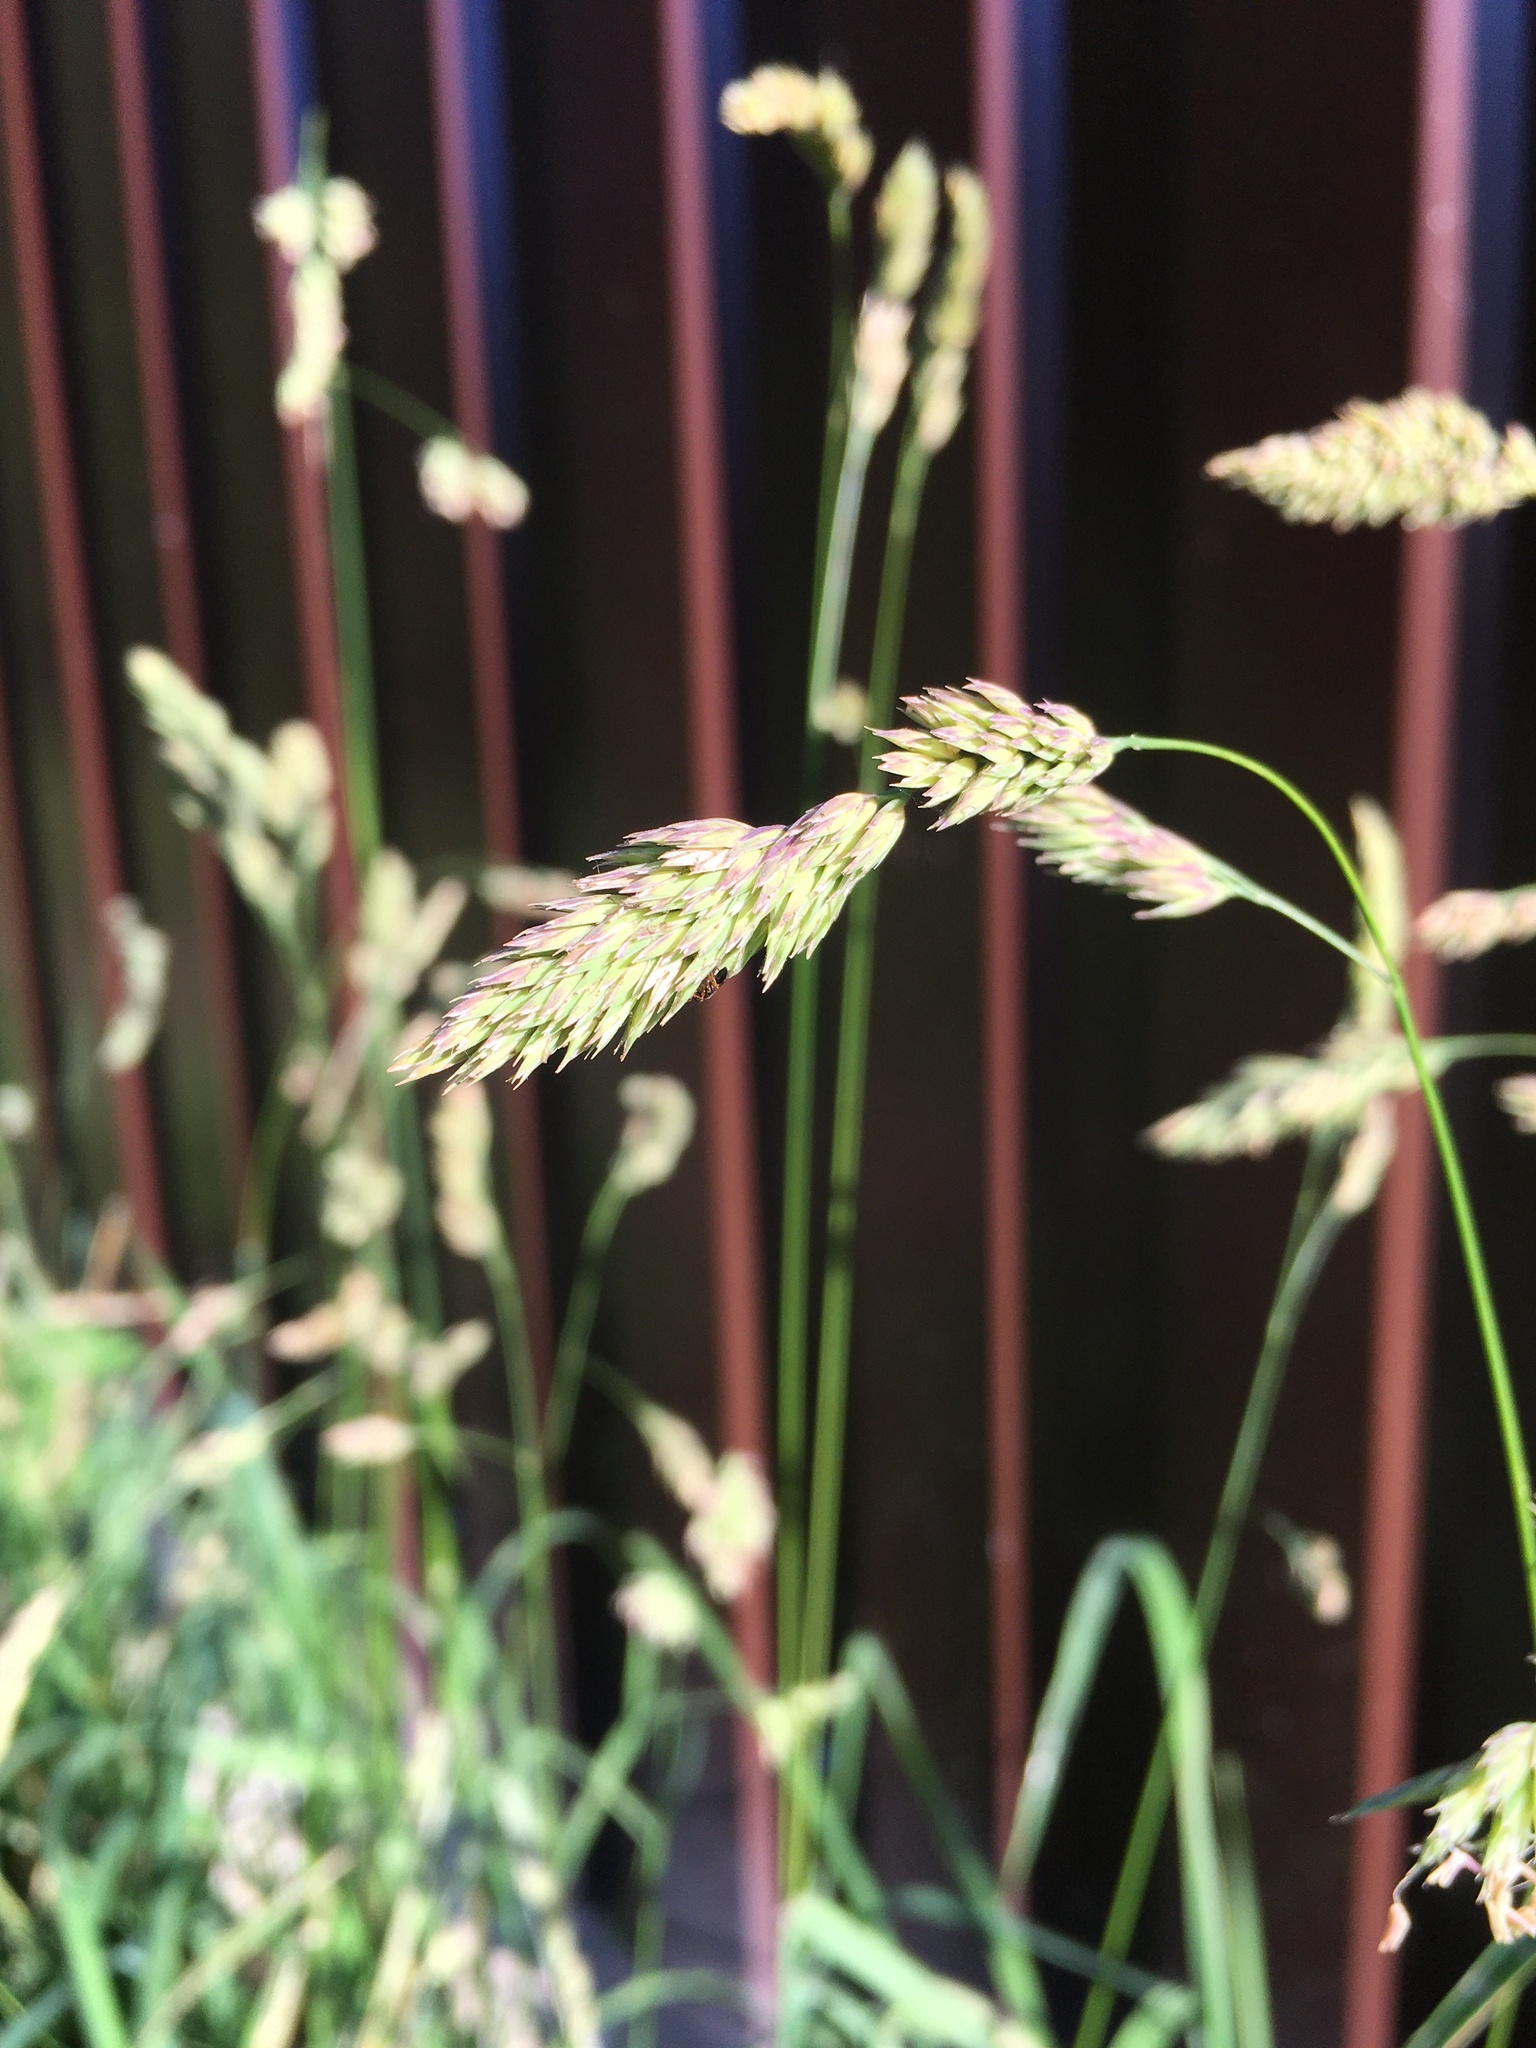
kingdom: Plantae
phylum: Tracheophyta
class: Liliopsida
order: Poales
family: Poaceae
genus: Dactylis
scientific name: Dactylis glomerata
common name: Orchardgrass
